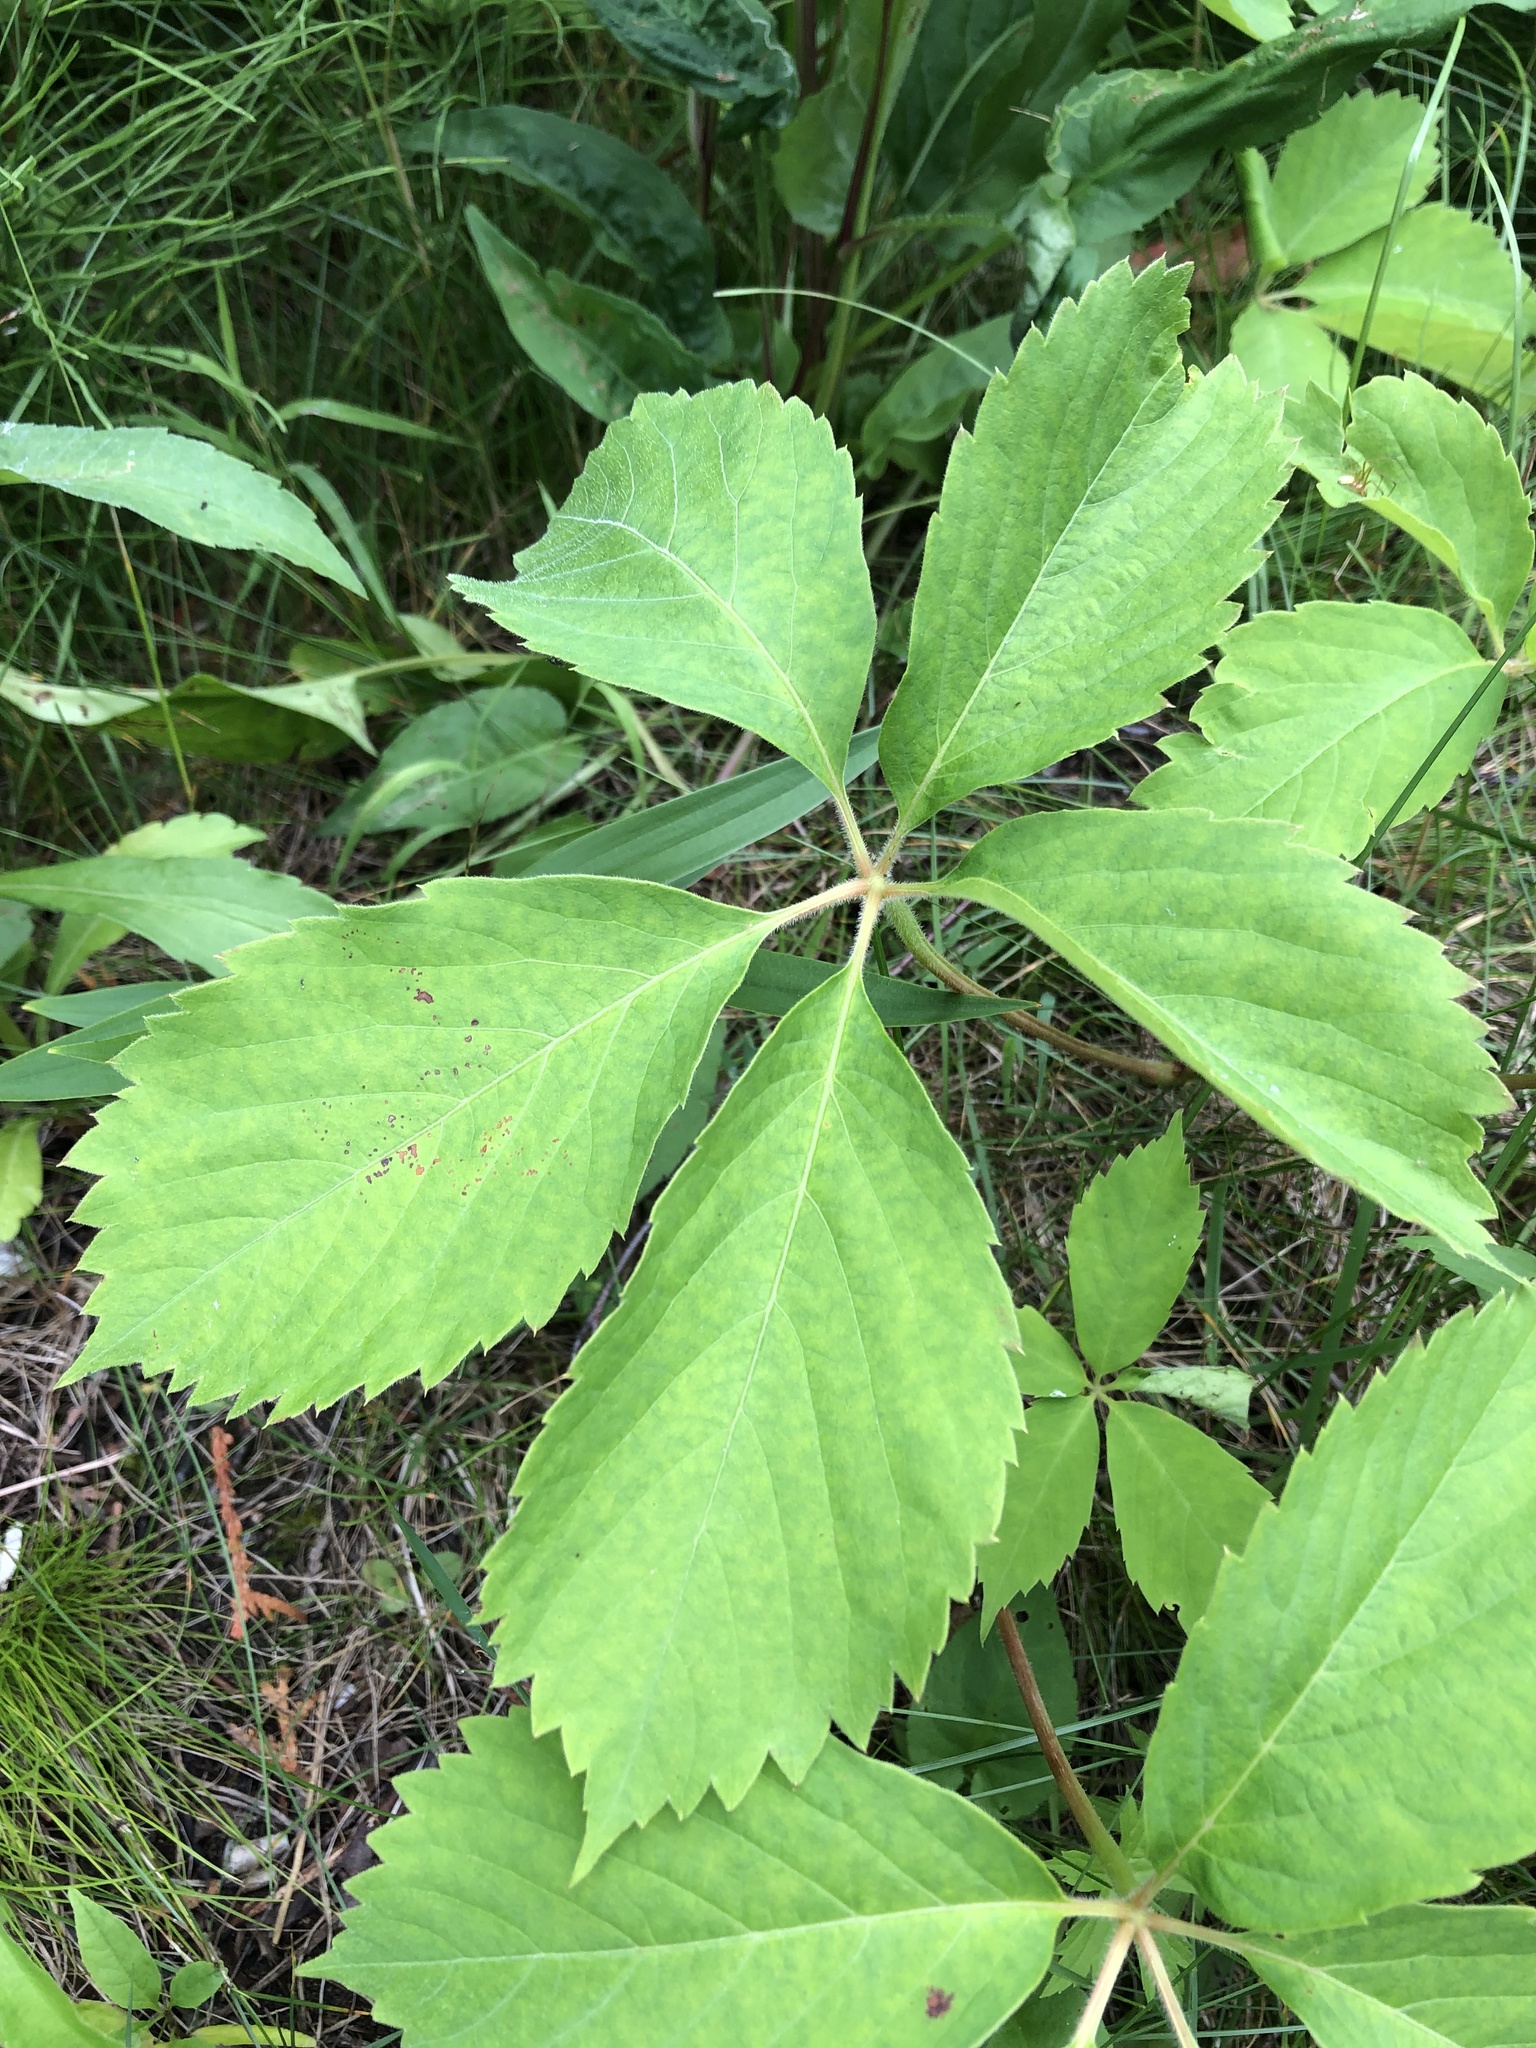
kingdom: Plantae
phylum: Tracheophyta
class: Magnoliopsida
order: Vitales
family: Vitaceae
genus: Parthenocissus
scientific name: Parthenocissus quinquefolia
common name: Virginia-creeper
